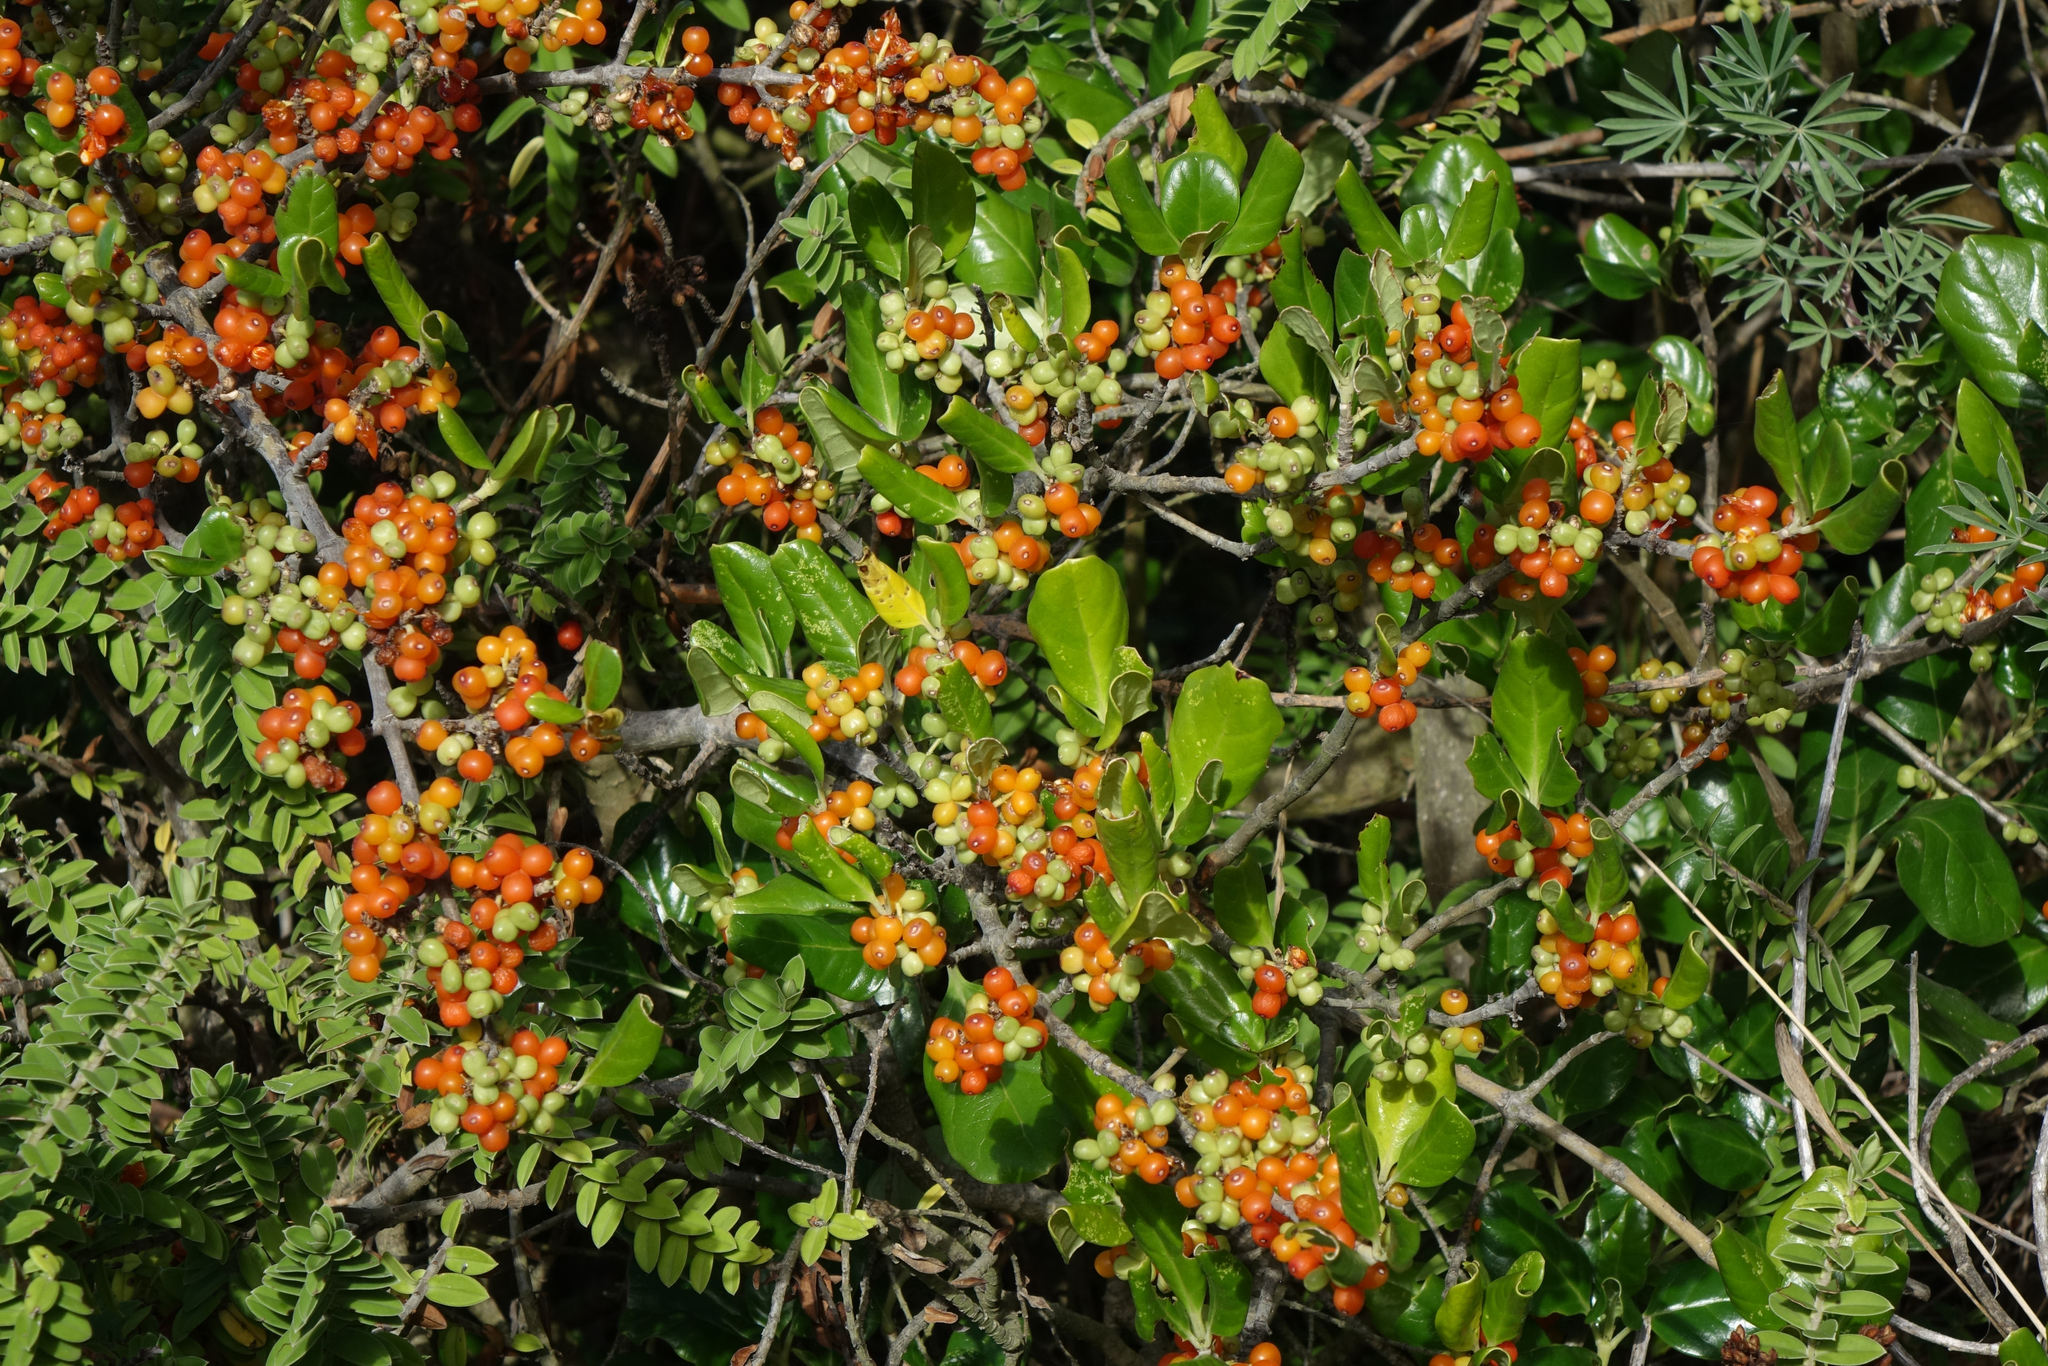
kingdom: Plantae
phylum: Tracheophyta
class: Magnoliopsida
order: Gentianales
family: Rubiaceae
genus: Coprosma
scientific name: Coprosma repens
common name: Tree bedstraw
